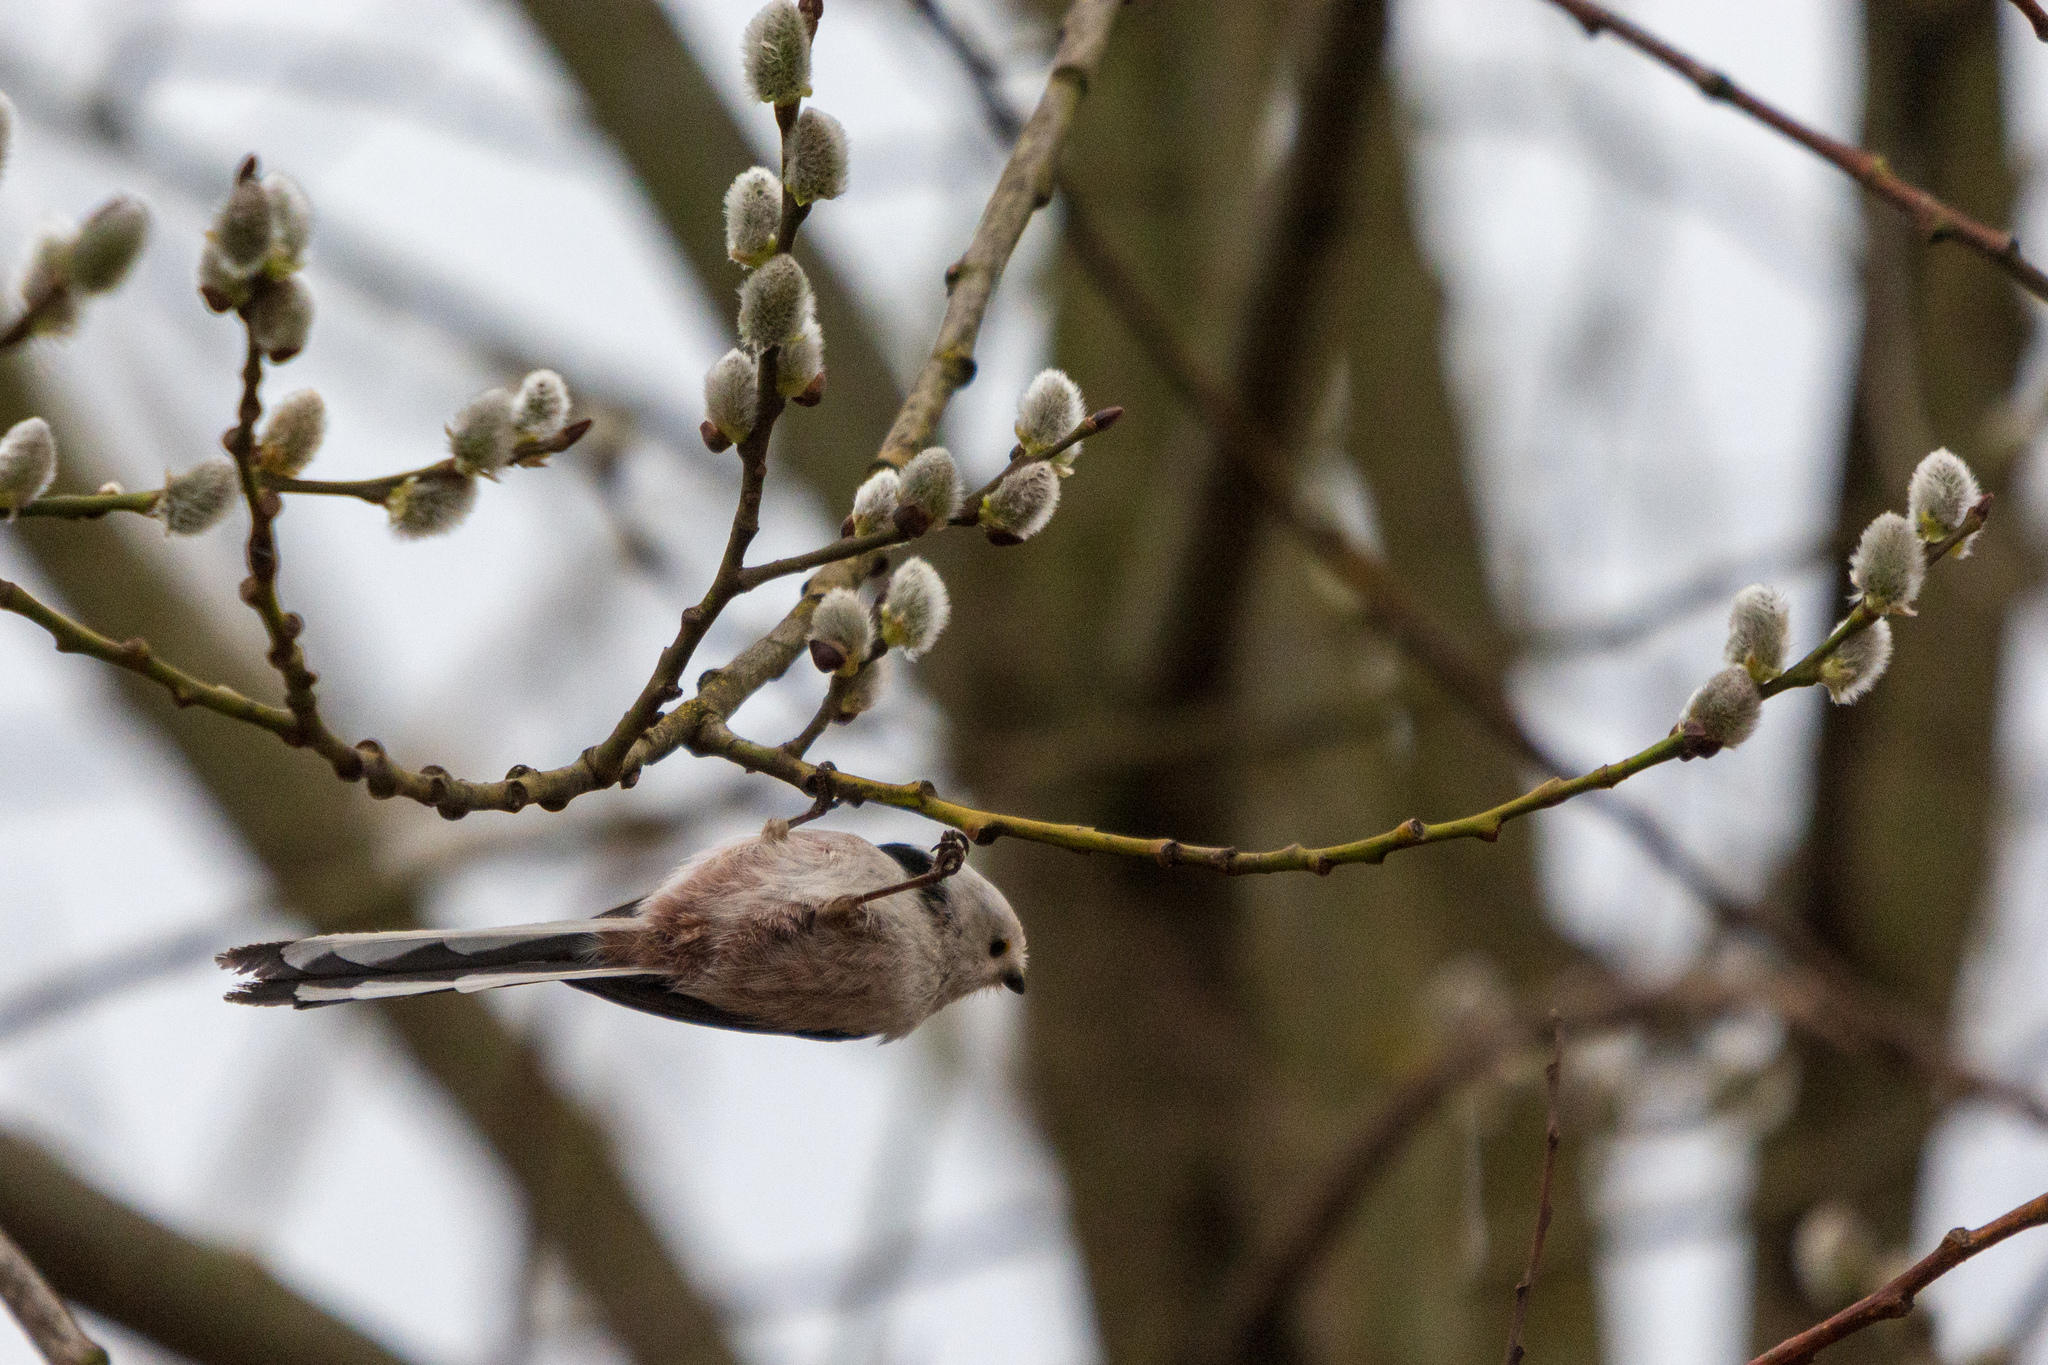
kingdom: Animalia
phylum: Chordata
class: Aves
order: Passeriformes
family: Aegithalidae
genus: Aegithalos
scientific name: Aegithalos caudatus
